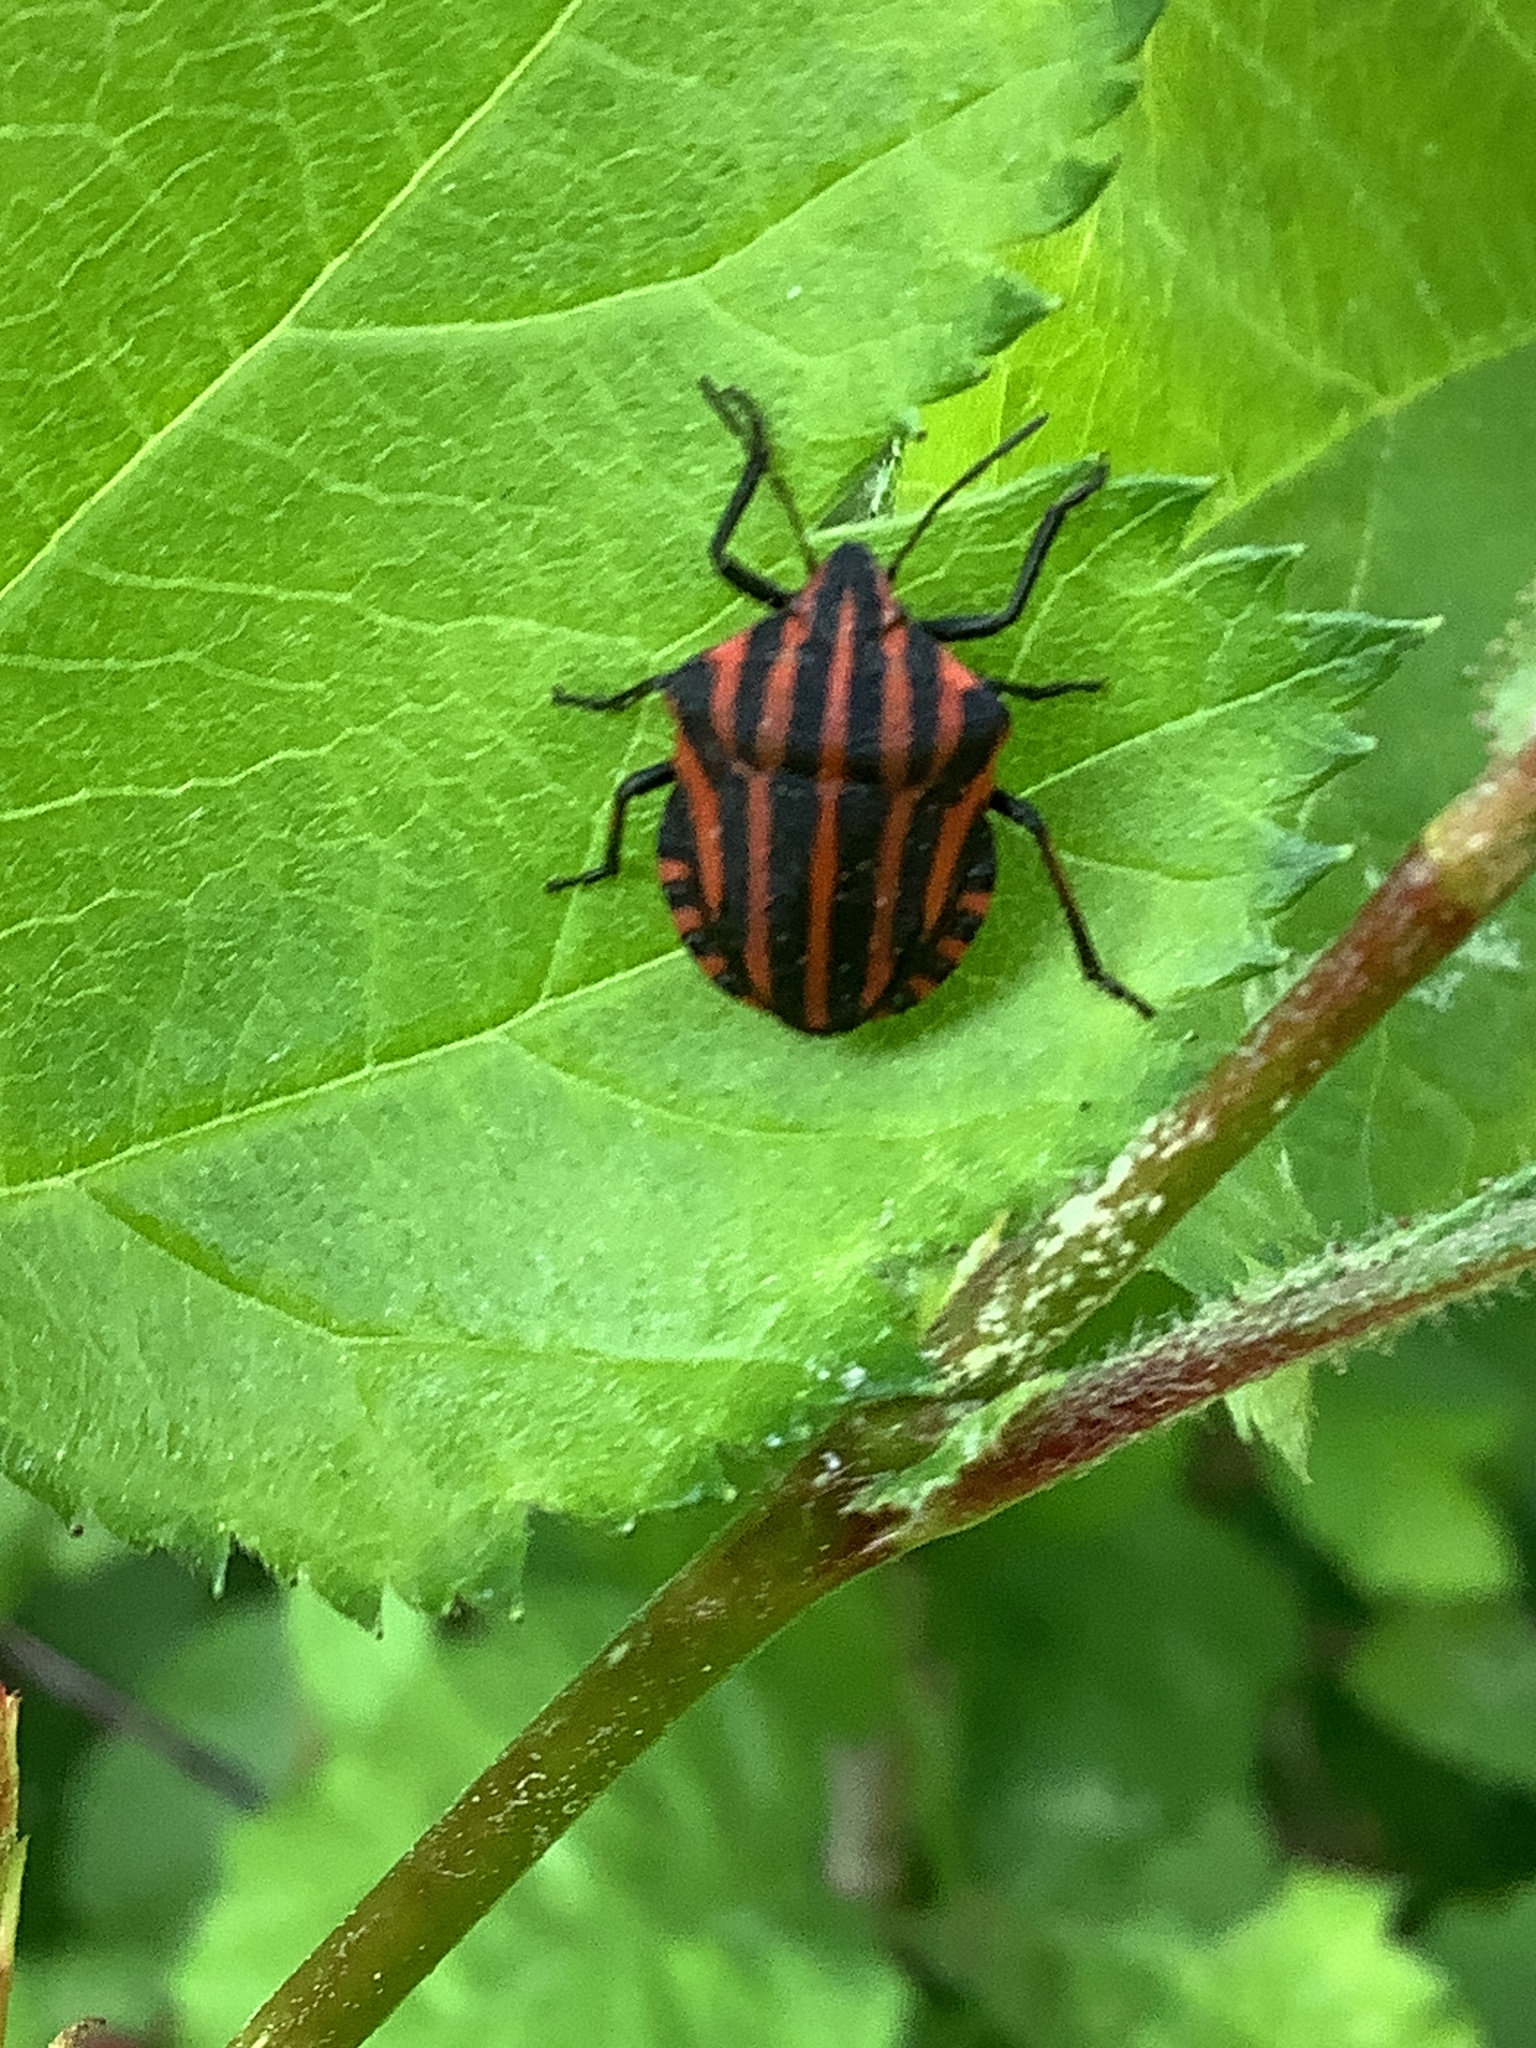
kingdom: Animalia
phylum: Arthropoda
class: Insecta
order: Hemiptera
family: Pentatomidae
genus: Graphosoma
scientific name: Graphosoma italicum
